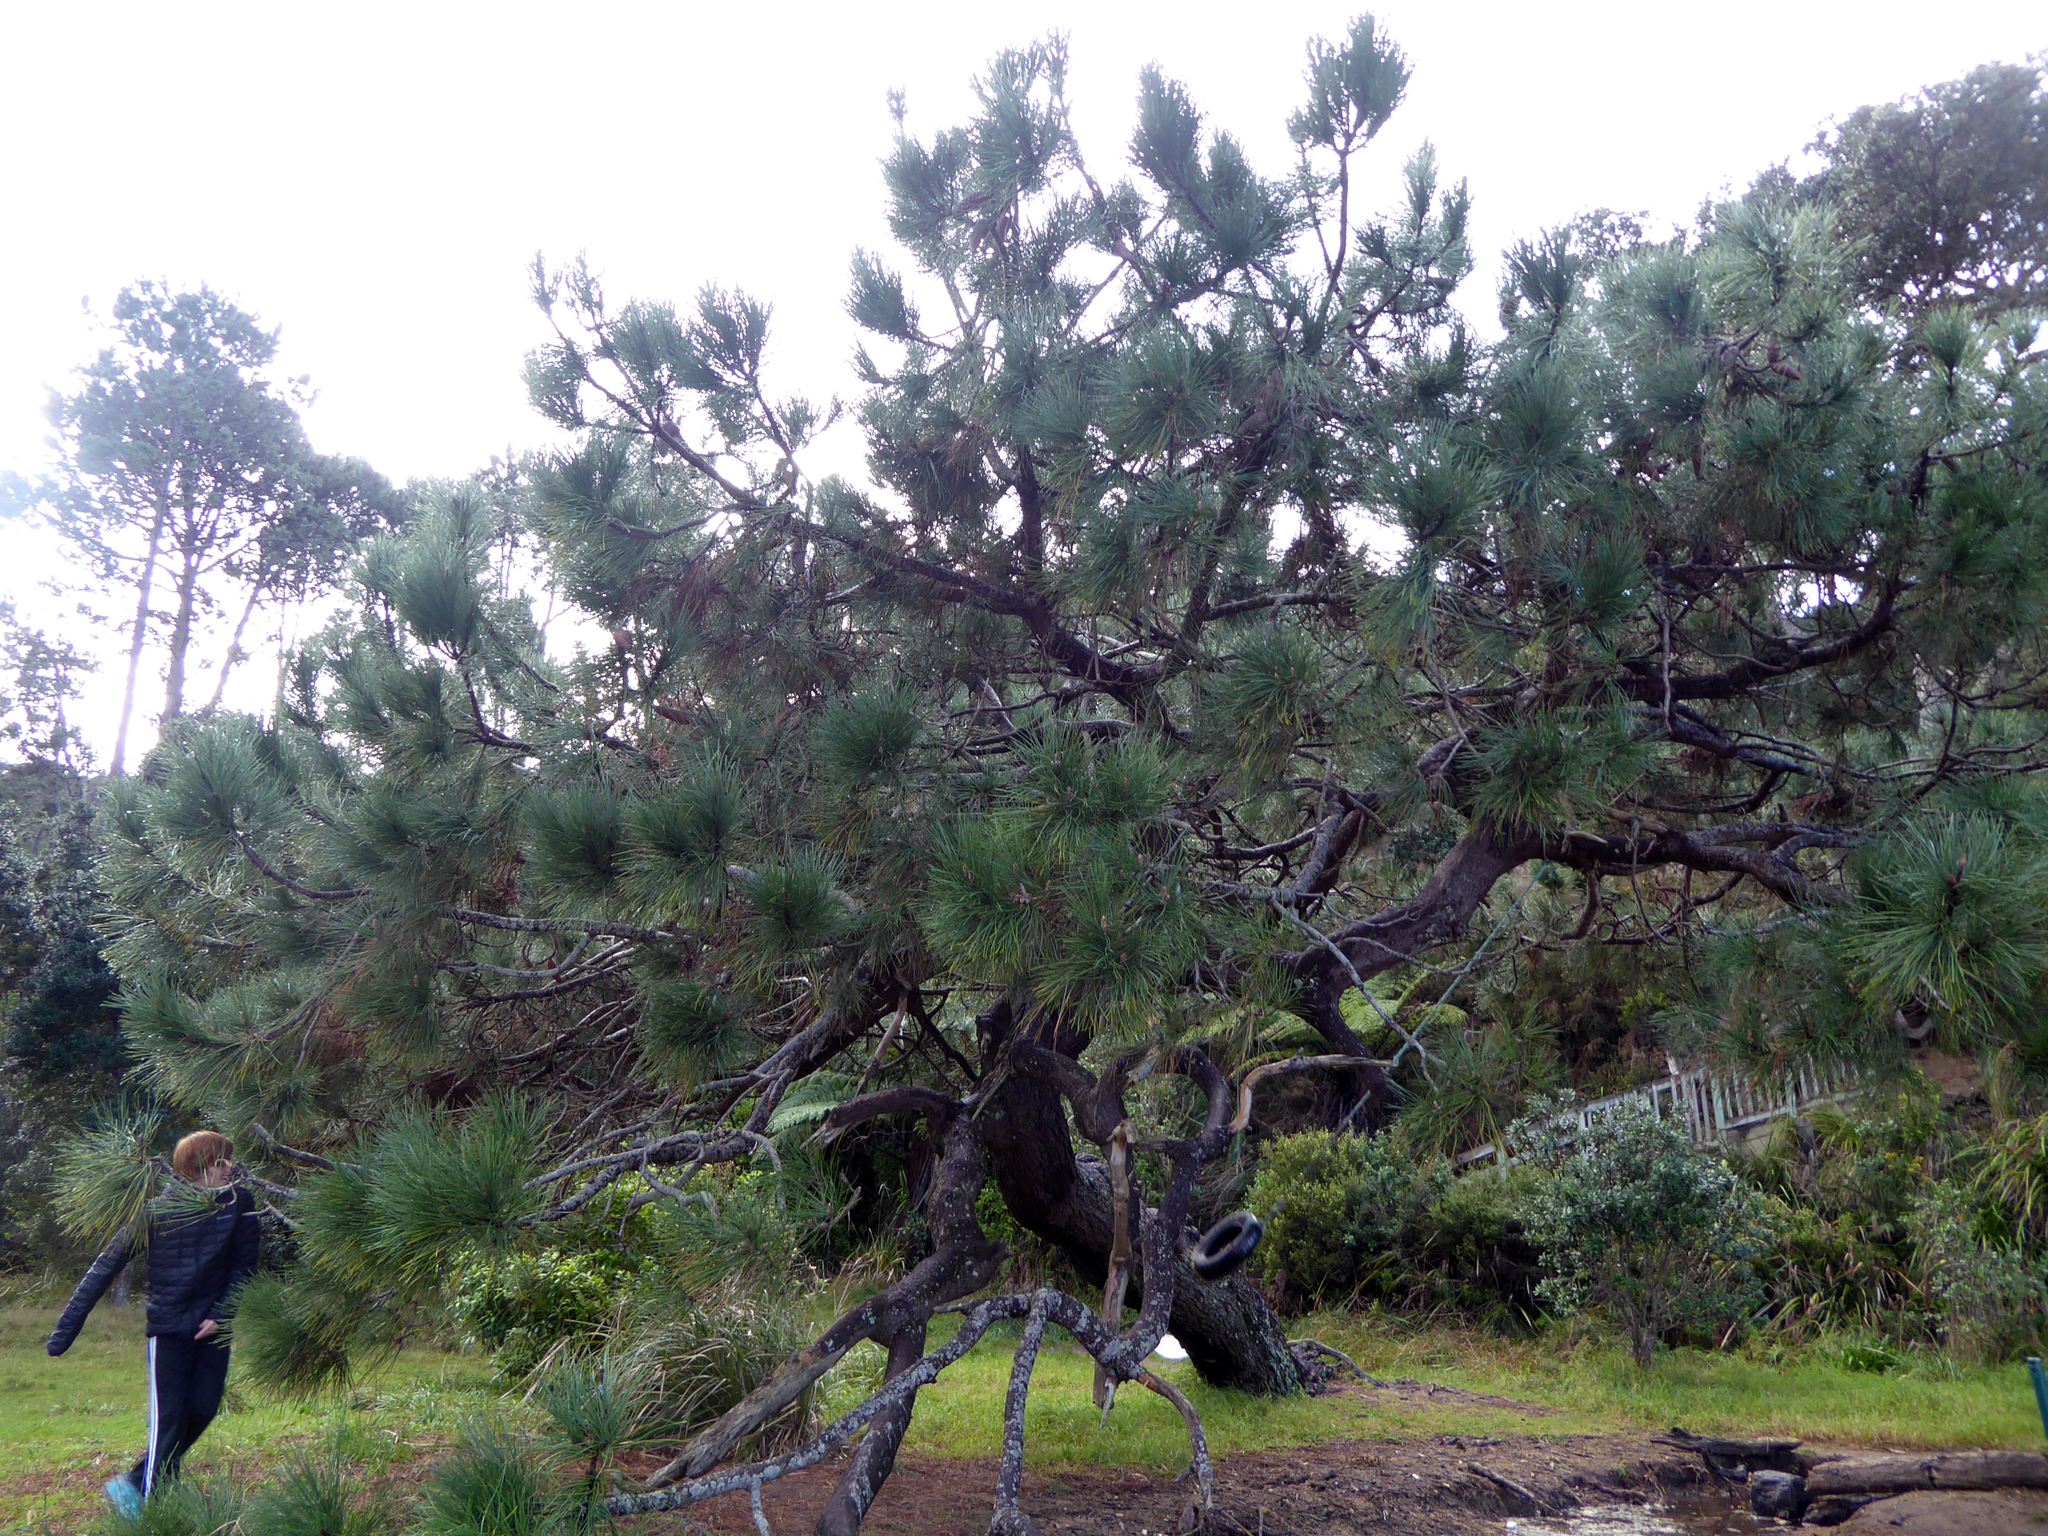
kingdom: Plantae
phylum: Tracheophyta
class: Pinopsida
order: Pinales
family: Pinaceae
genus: Pinus
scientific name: Pinus pinaster
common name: Maritime pine
